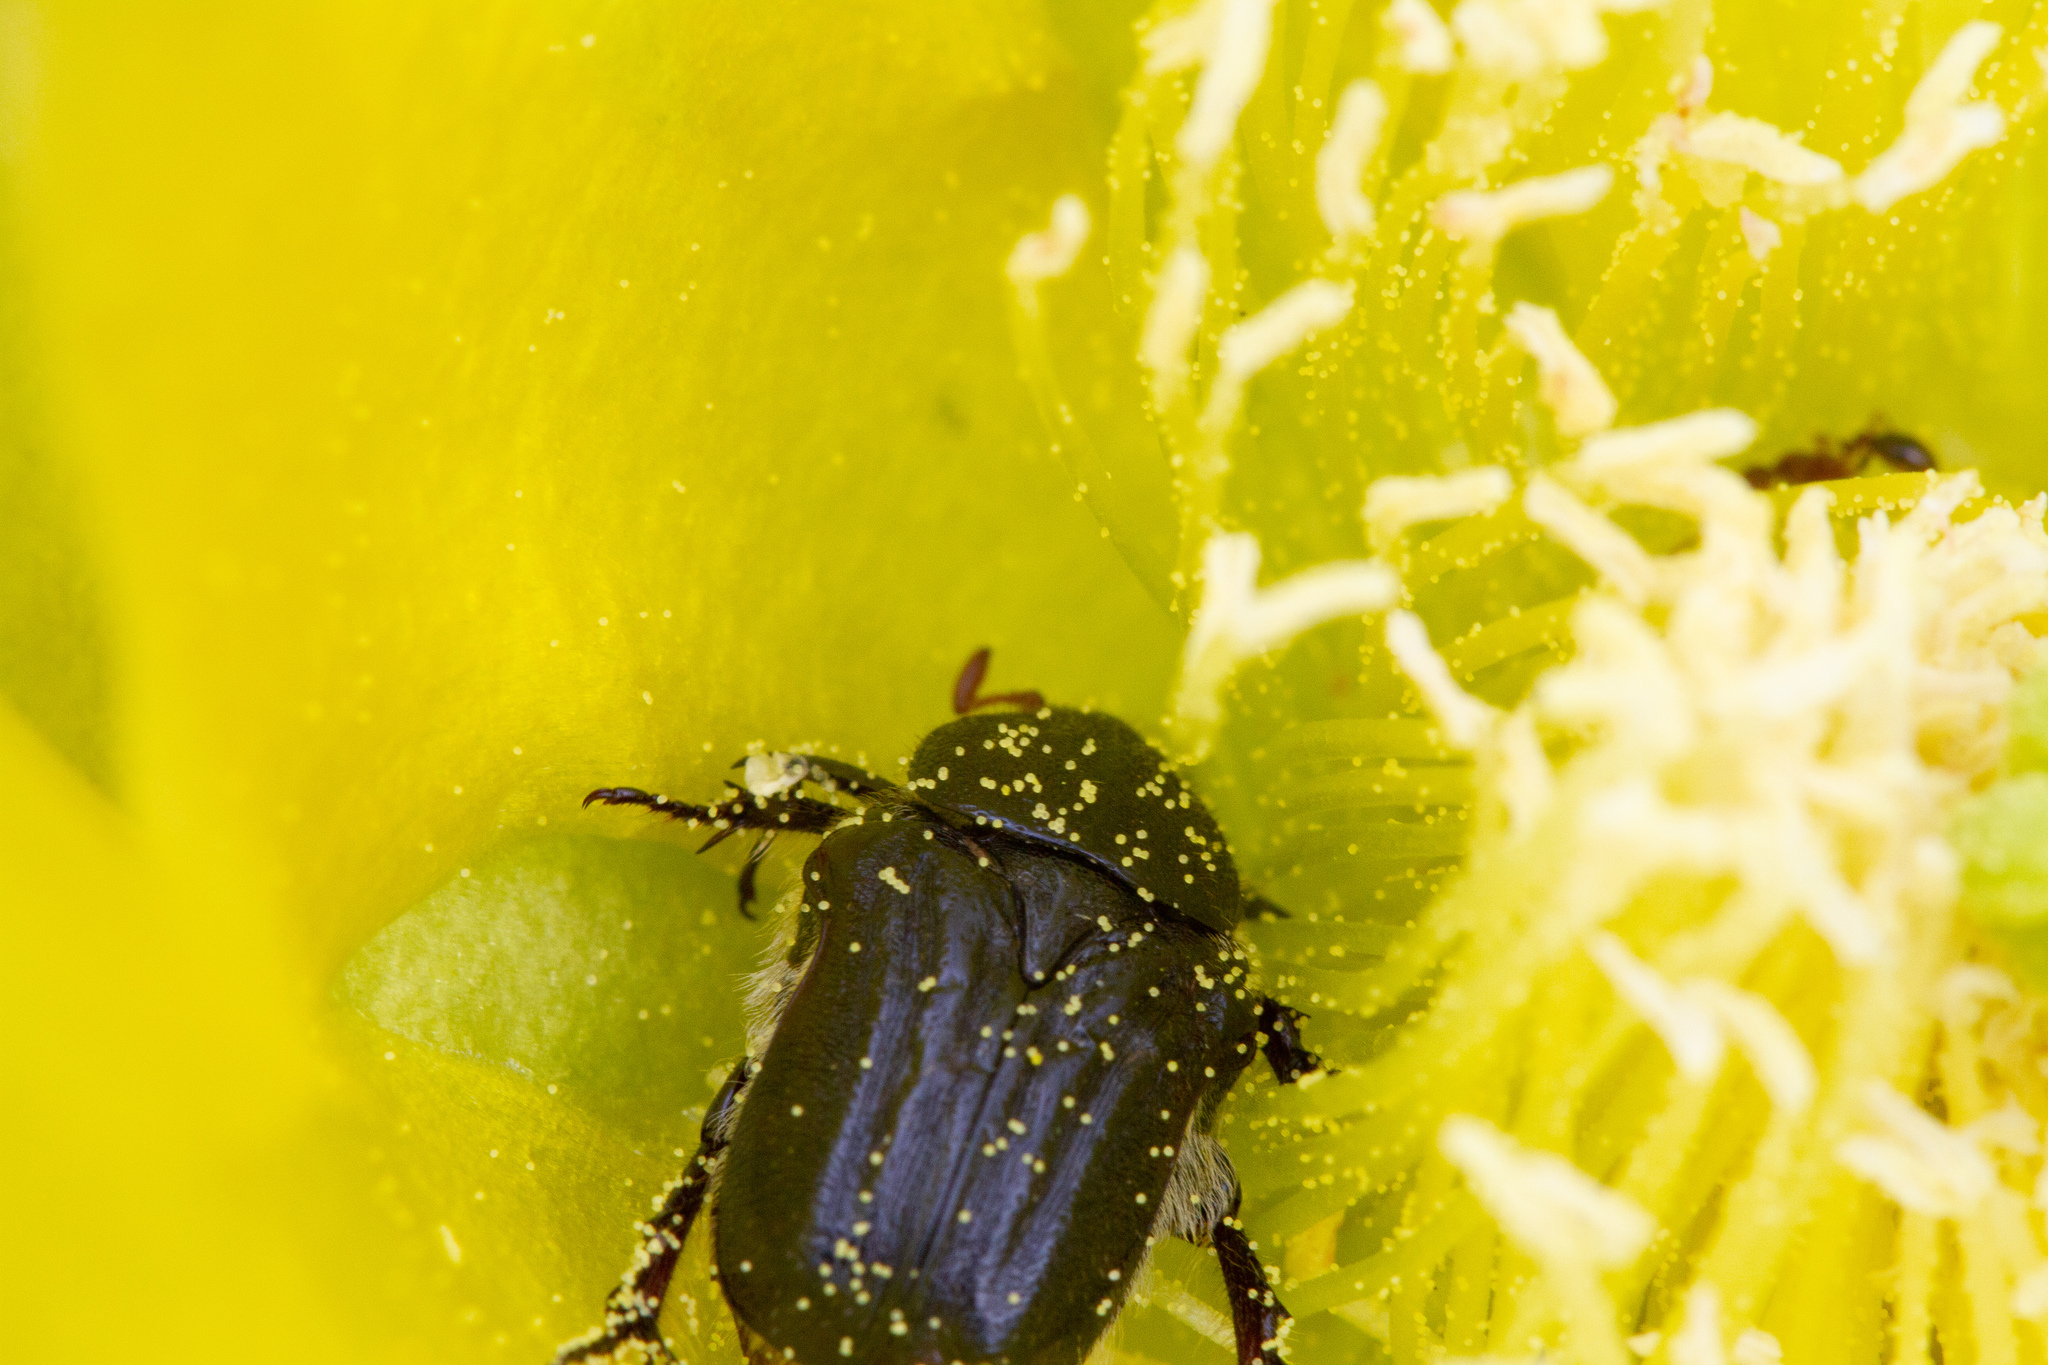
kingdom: Animalia
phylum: Arthropoda
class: Insecta
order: Coleoptera
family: Scarabaeidae
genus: Euphoria
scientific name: Euphoria kernii
